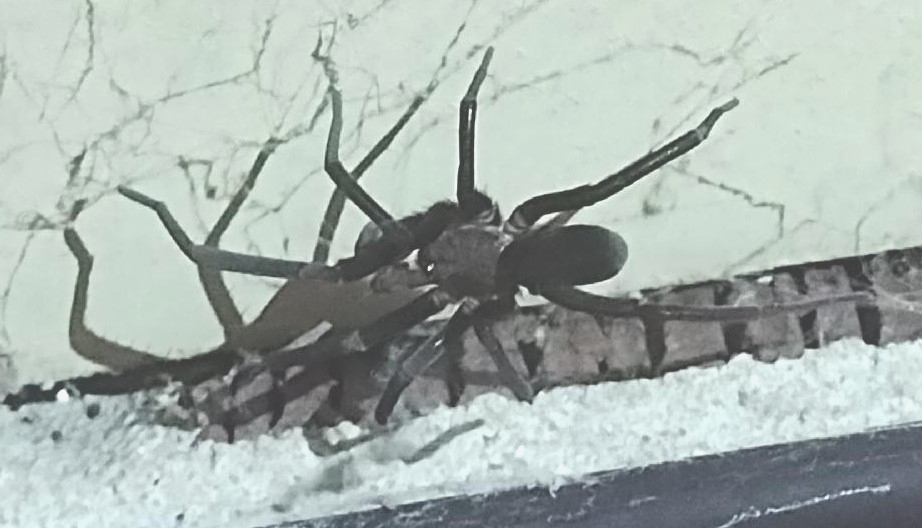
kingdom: Animalia
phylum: Arthropoda
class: Arachnida
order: Araneae
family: Filistatidae
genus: Kukulcania
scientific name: Kukulcania hibernalis
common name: Crevice weaver
